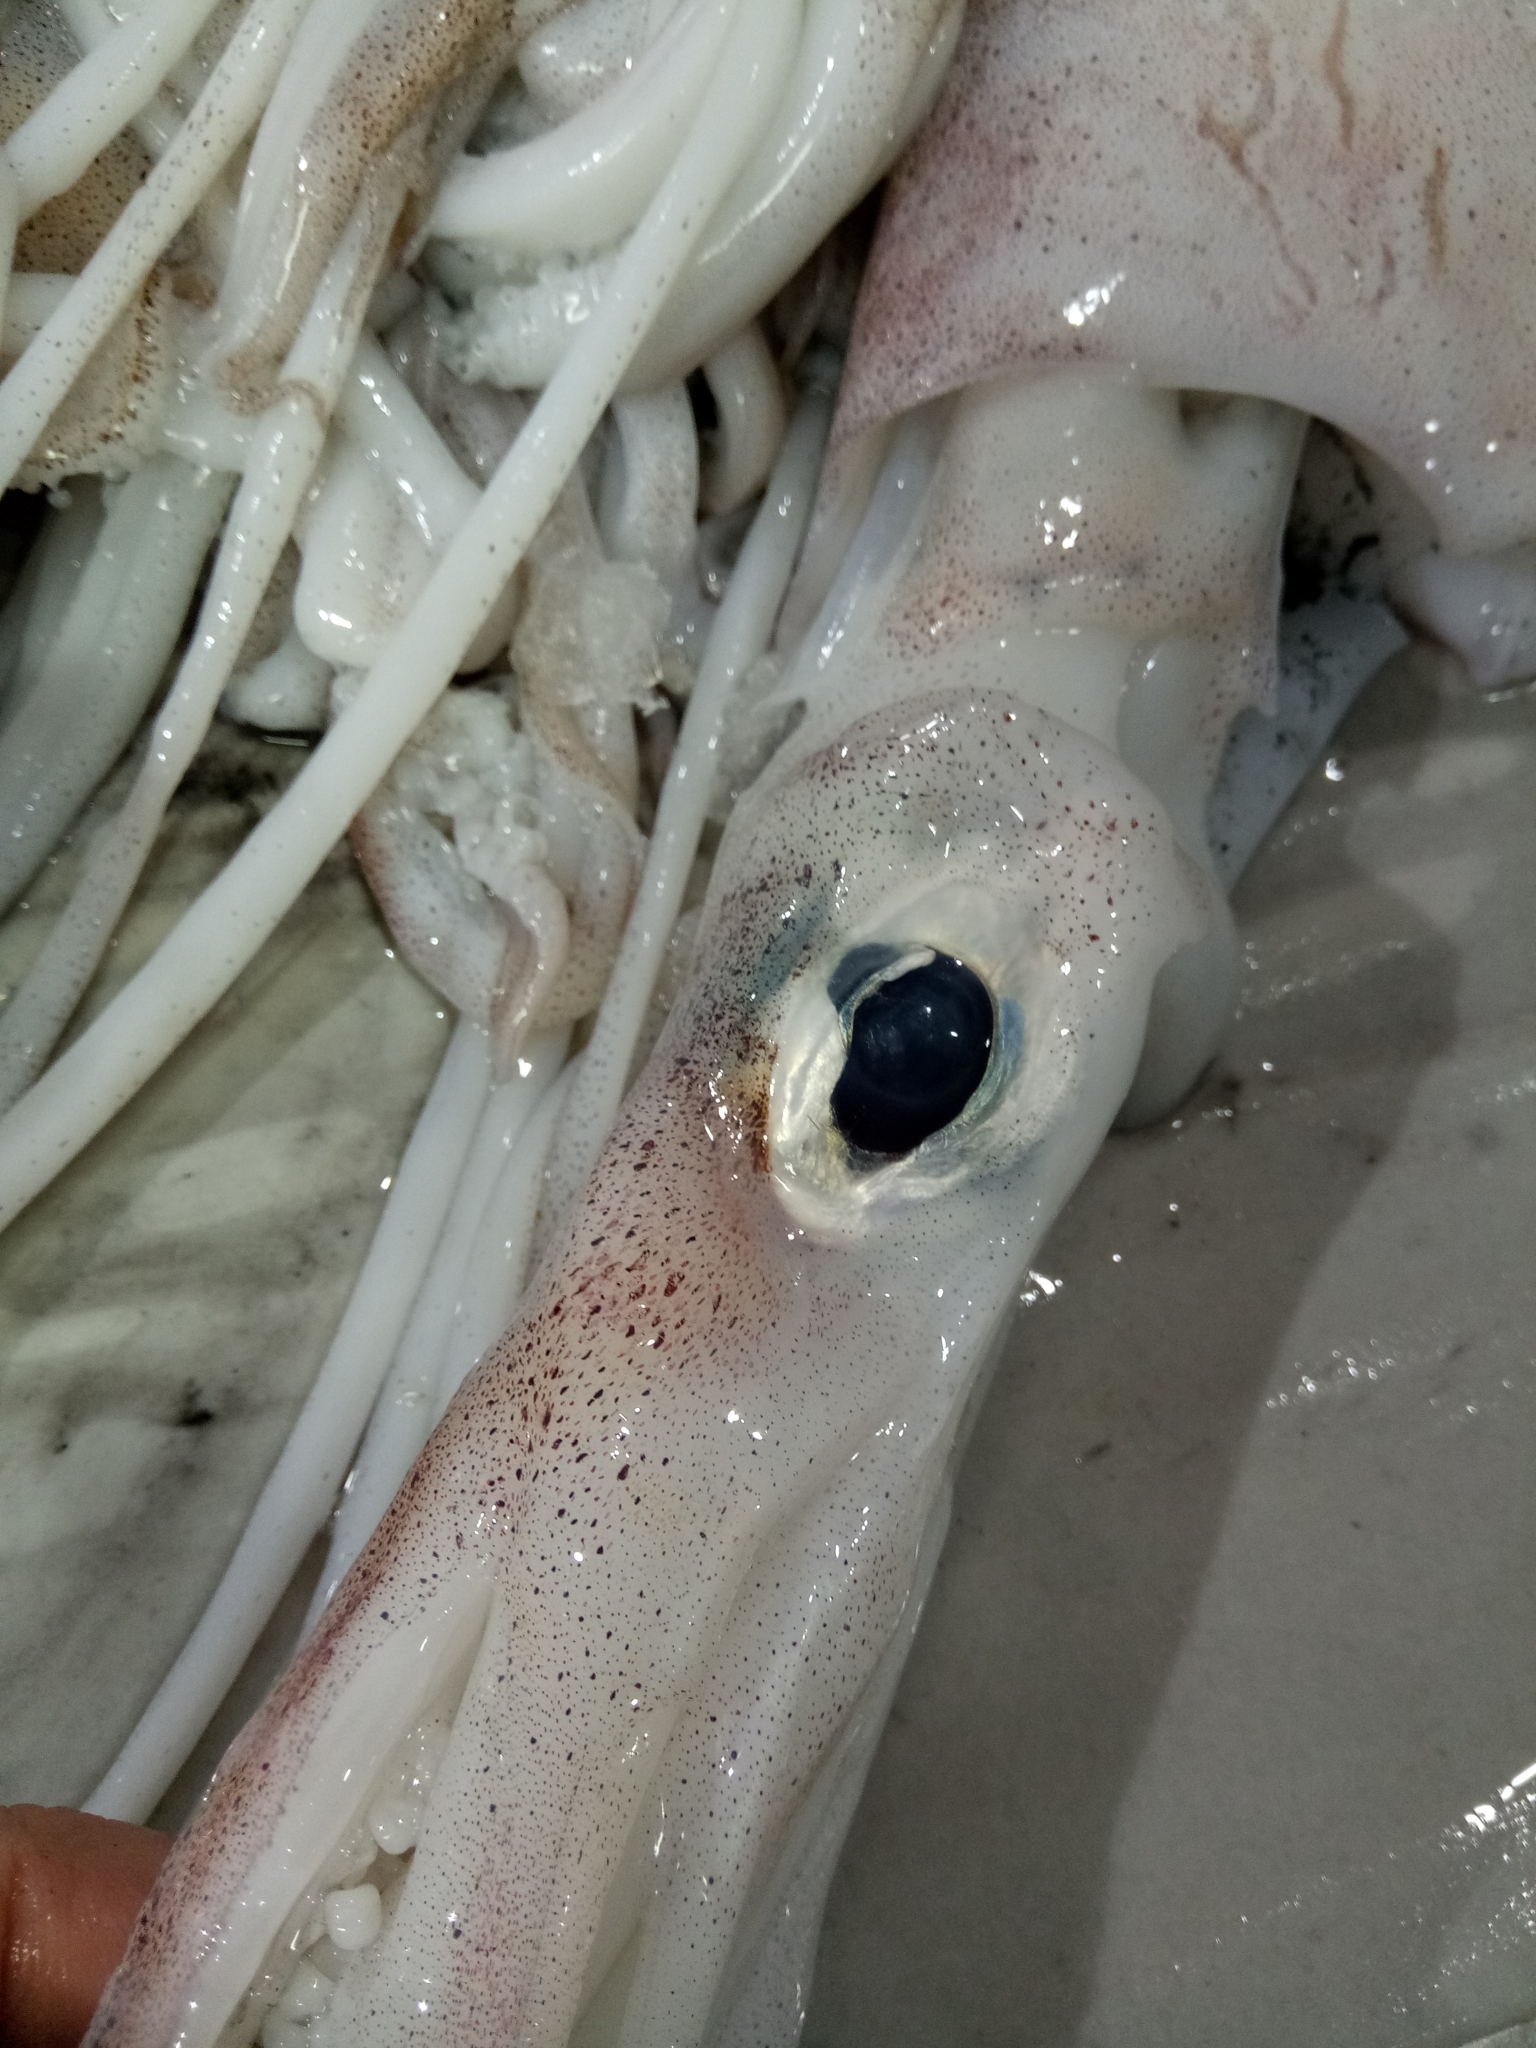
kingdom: Animalia
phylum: Mollusca
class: Cephalopoda
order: Myopsida
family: Loliginidae
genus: Loligo
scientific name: Loligo vulgaris
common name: European squid
